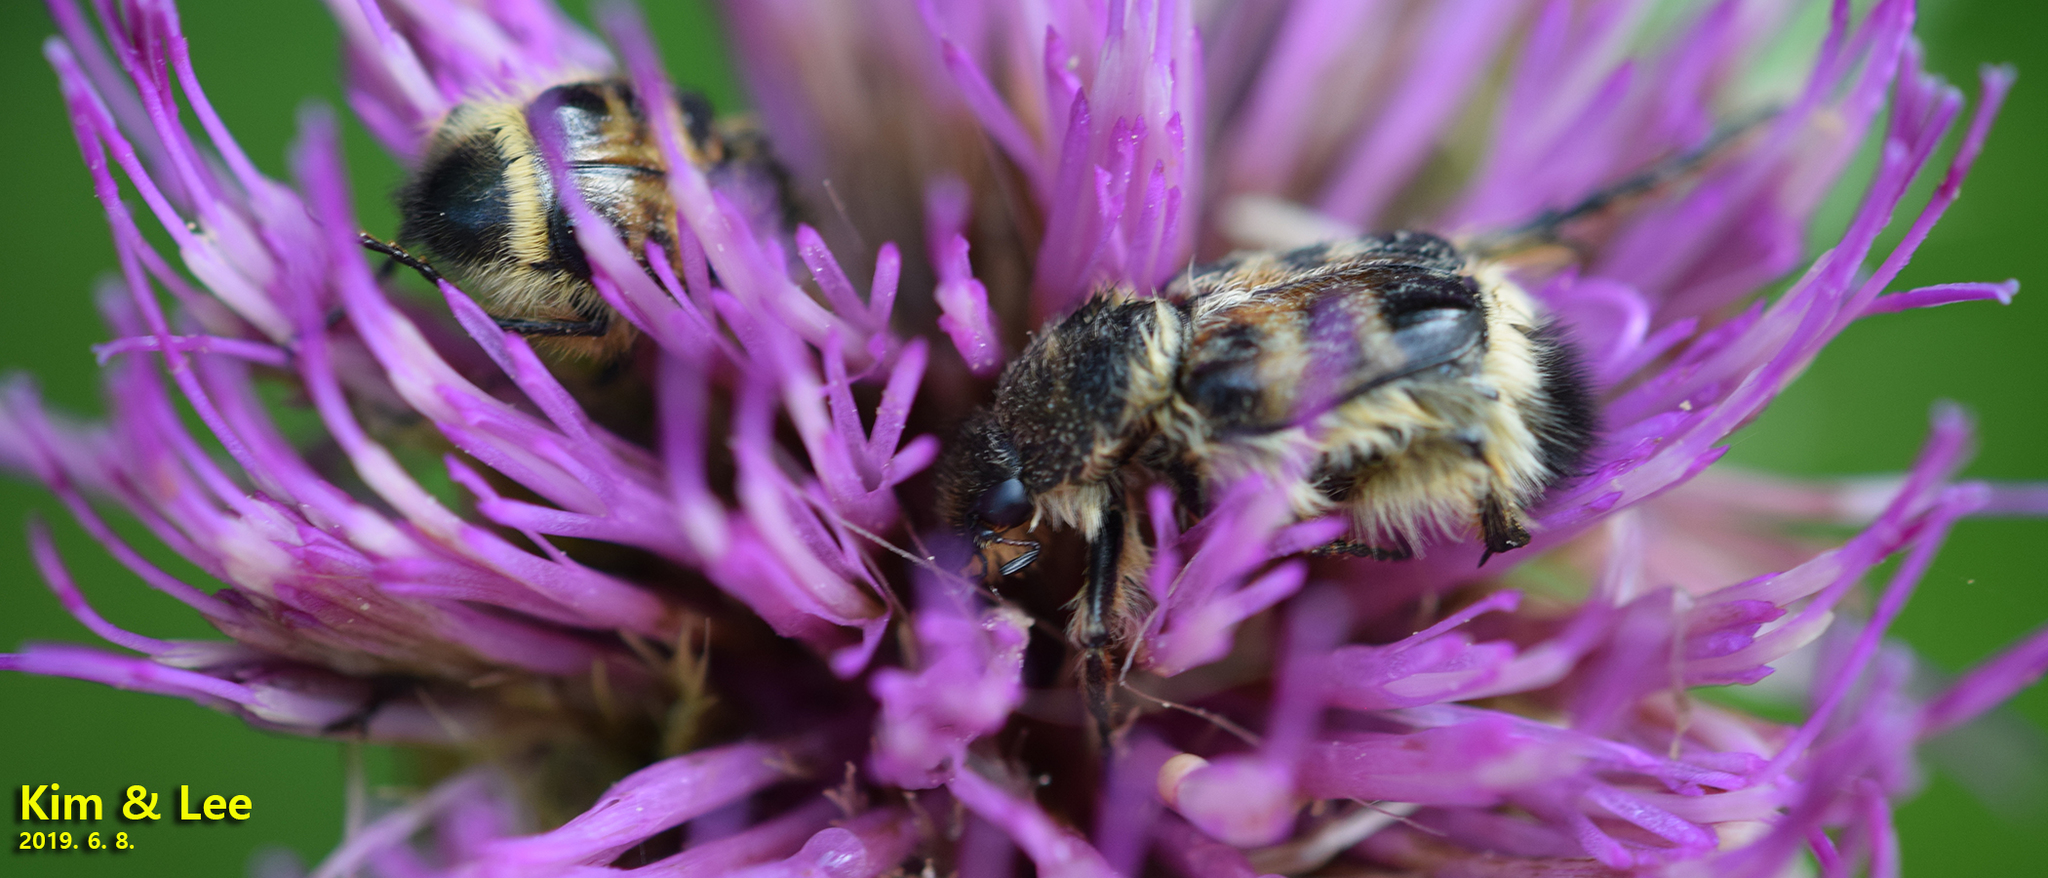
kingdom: Animalia
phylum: Arthropoda
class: Insecta
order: Coleoptera
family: Scarabaeidae
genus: Lasiotrichius
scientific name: Lasiotrichius succinctus
